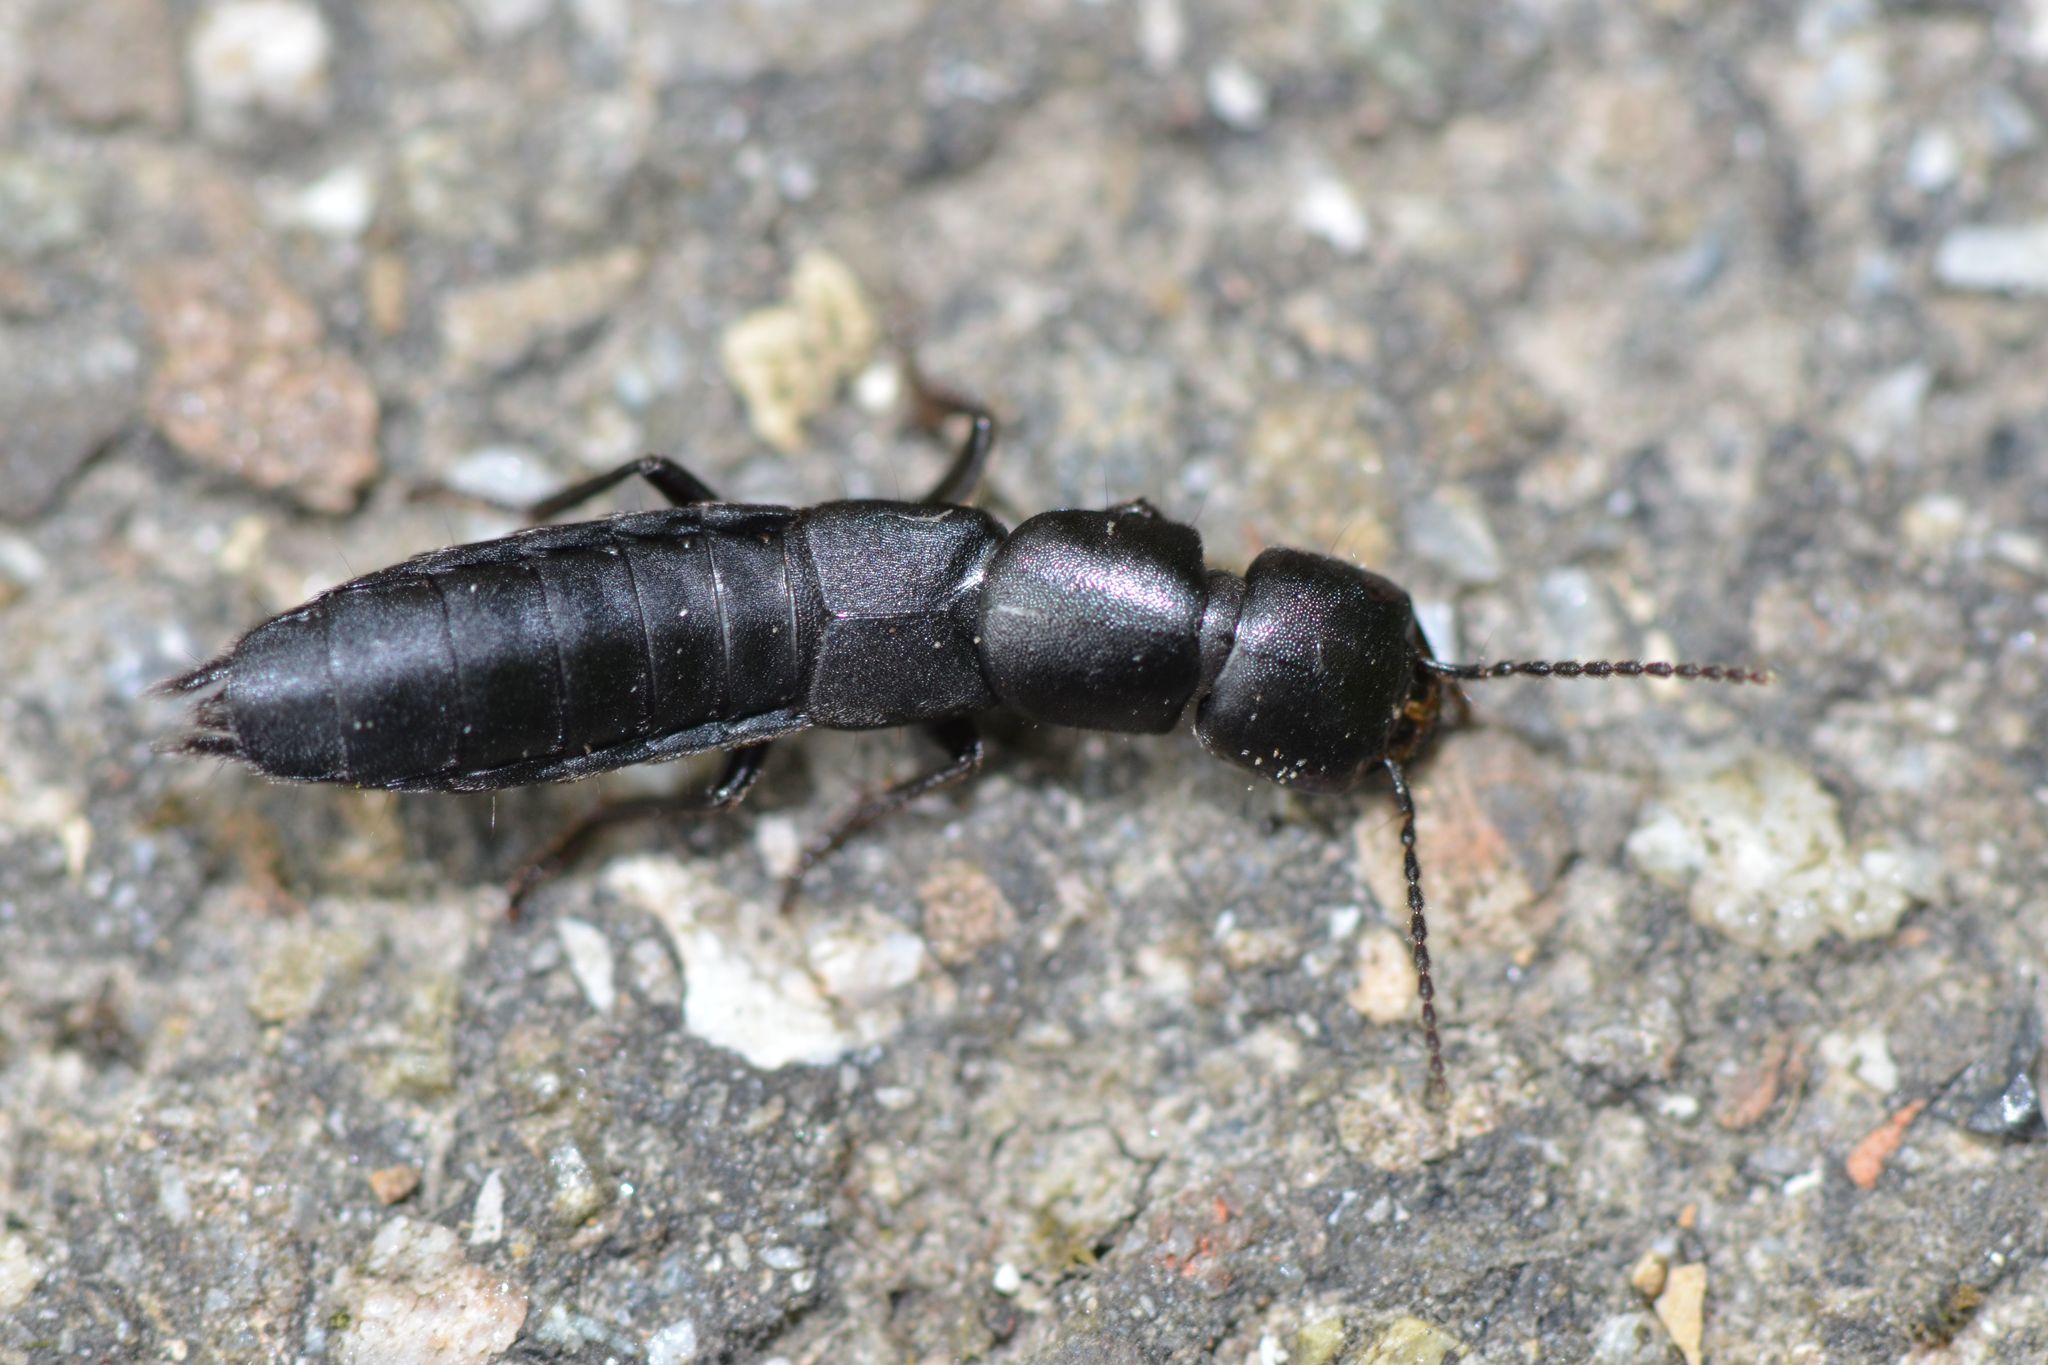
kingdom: Animalia
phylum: Arthropoda
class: Insecta
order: Coleoptera
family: Staphylinidae
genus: Ocypus
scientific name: Ocypus nitens
